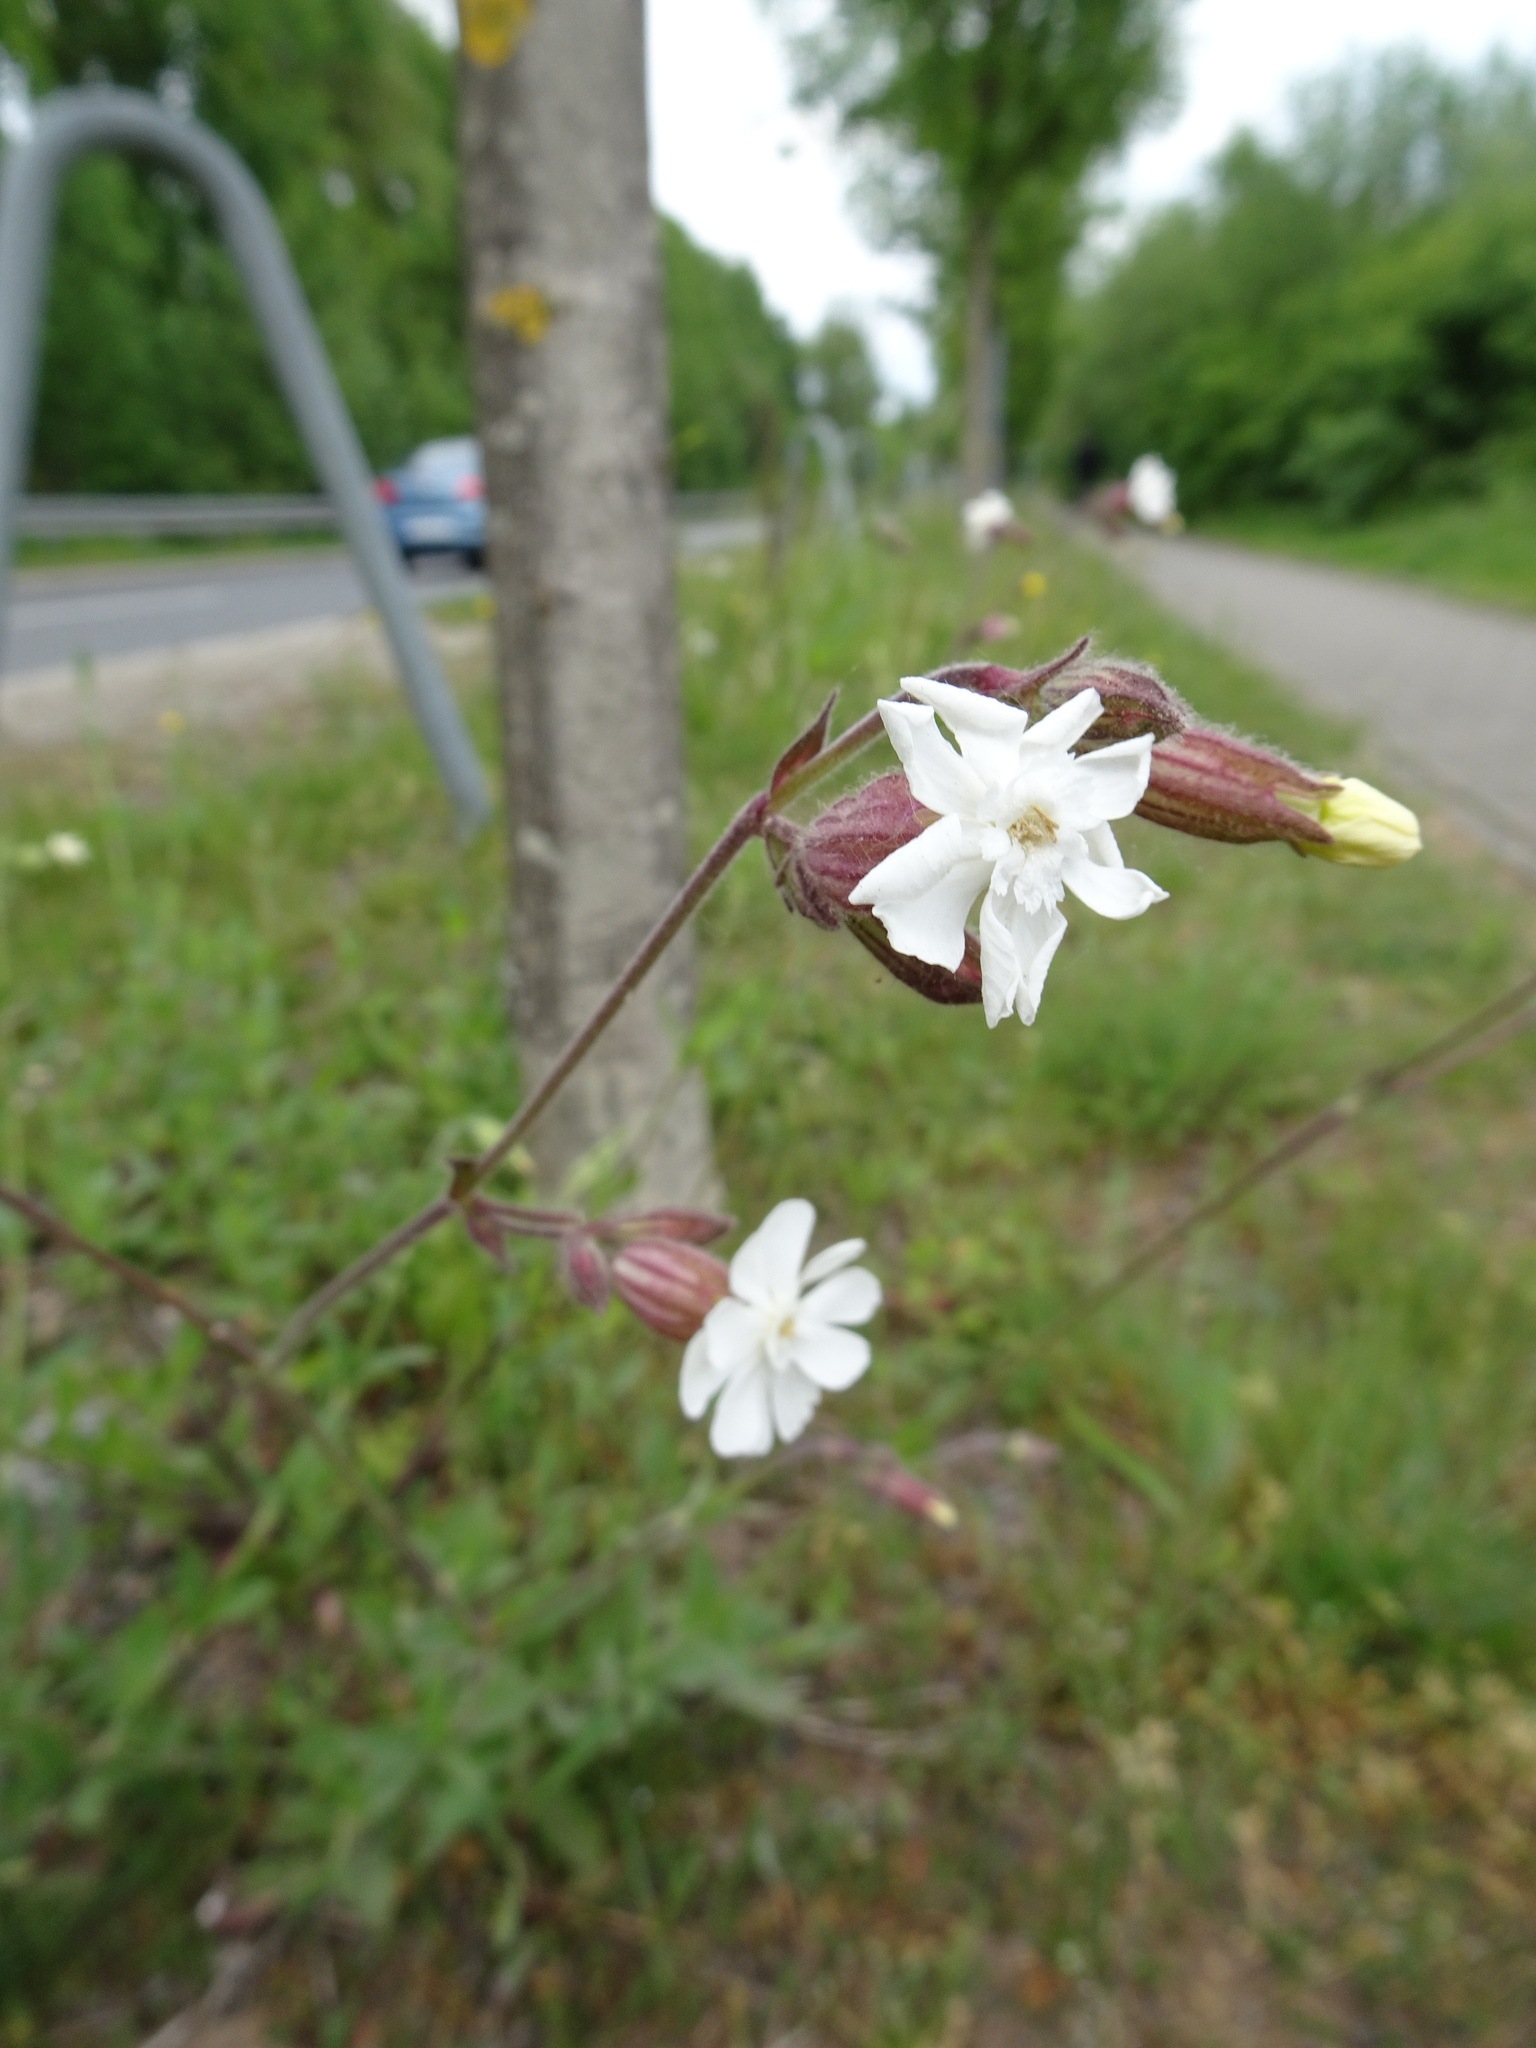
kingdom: Plantae
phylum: Tracheophyta
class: Magnoliopsida
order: Caryophyllales
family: Caryophyllaceae
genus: Silene
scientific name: Silene latifolia
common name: White campion
